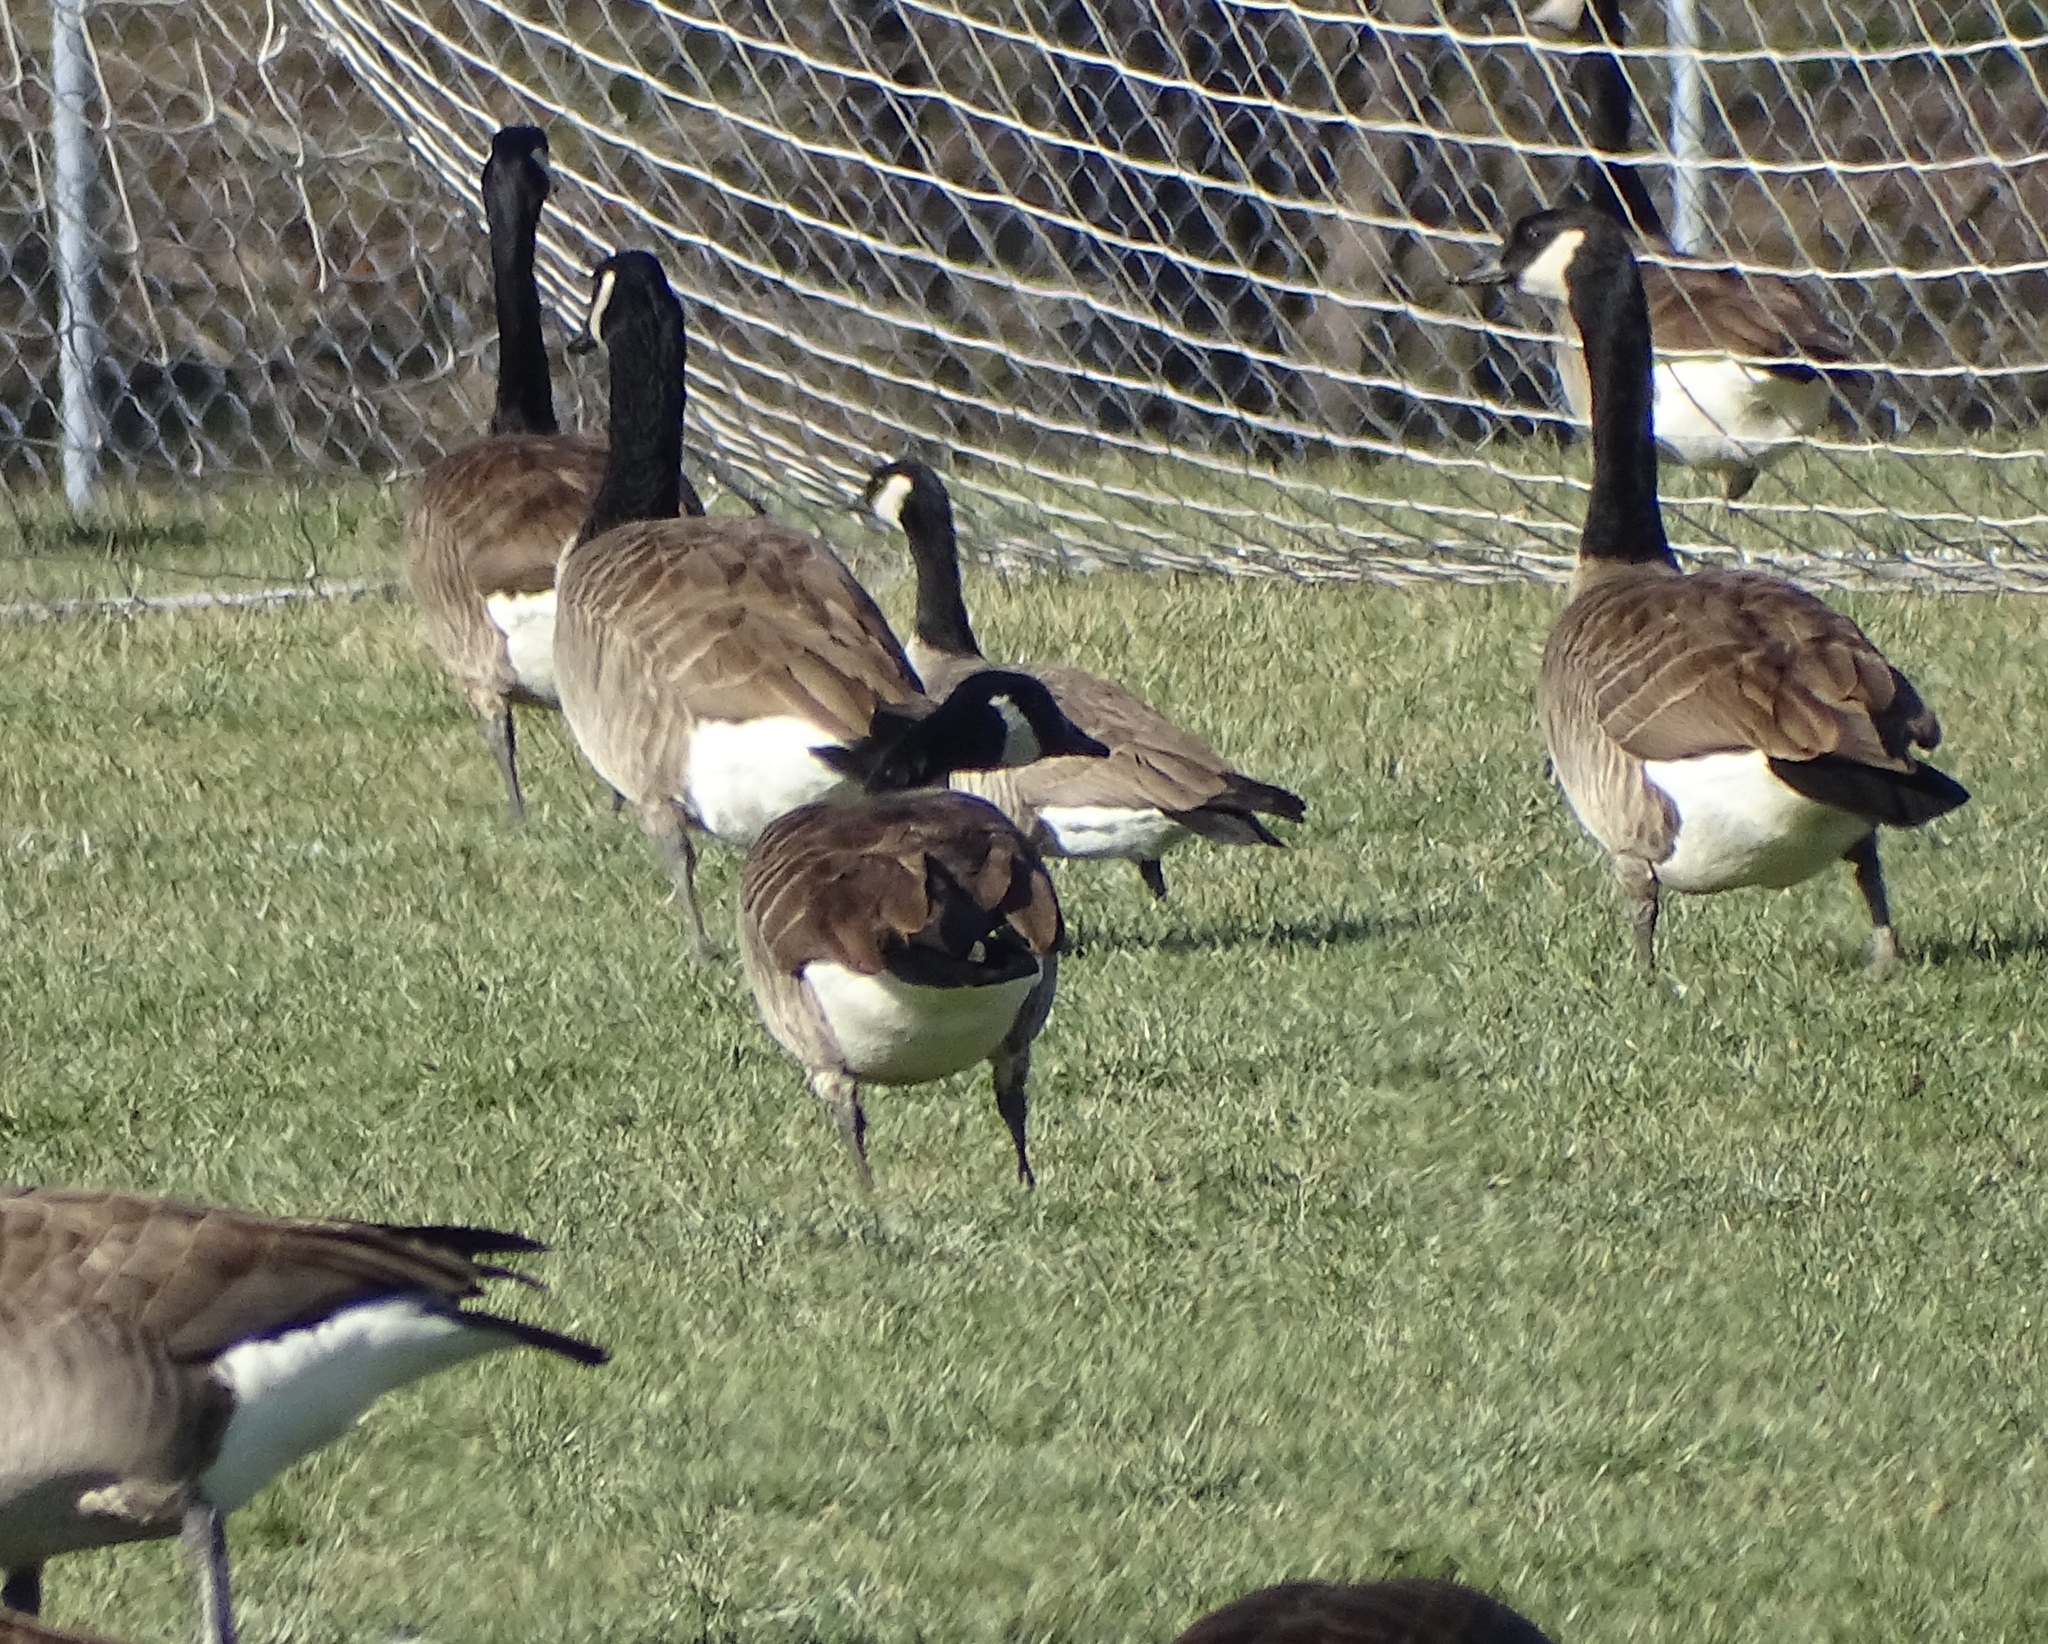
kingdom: Animalia
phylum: Chordata
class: Aves
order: Anseriformes
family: Anatidae
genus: Branta
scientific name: Branta hutchinsii
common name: Cackling goose
